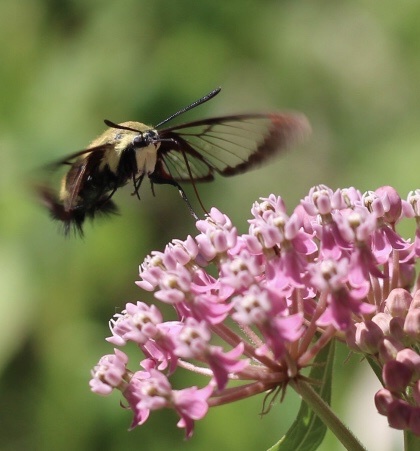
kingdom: Animalia
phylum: Arthropoda
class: Insecta
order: Lepidoptera
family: Sphingidae
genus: Hemaris
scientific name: Hemaris diffinis
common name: Bumblebee moth
